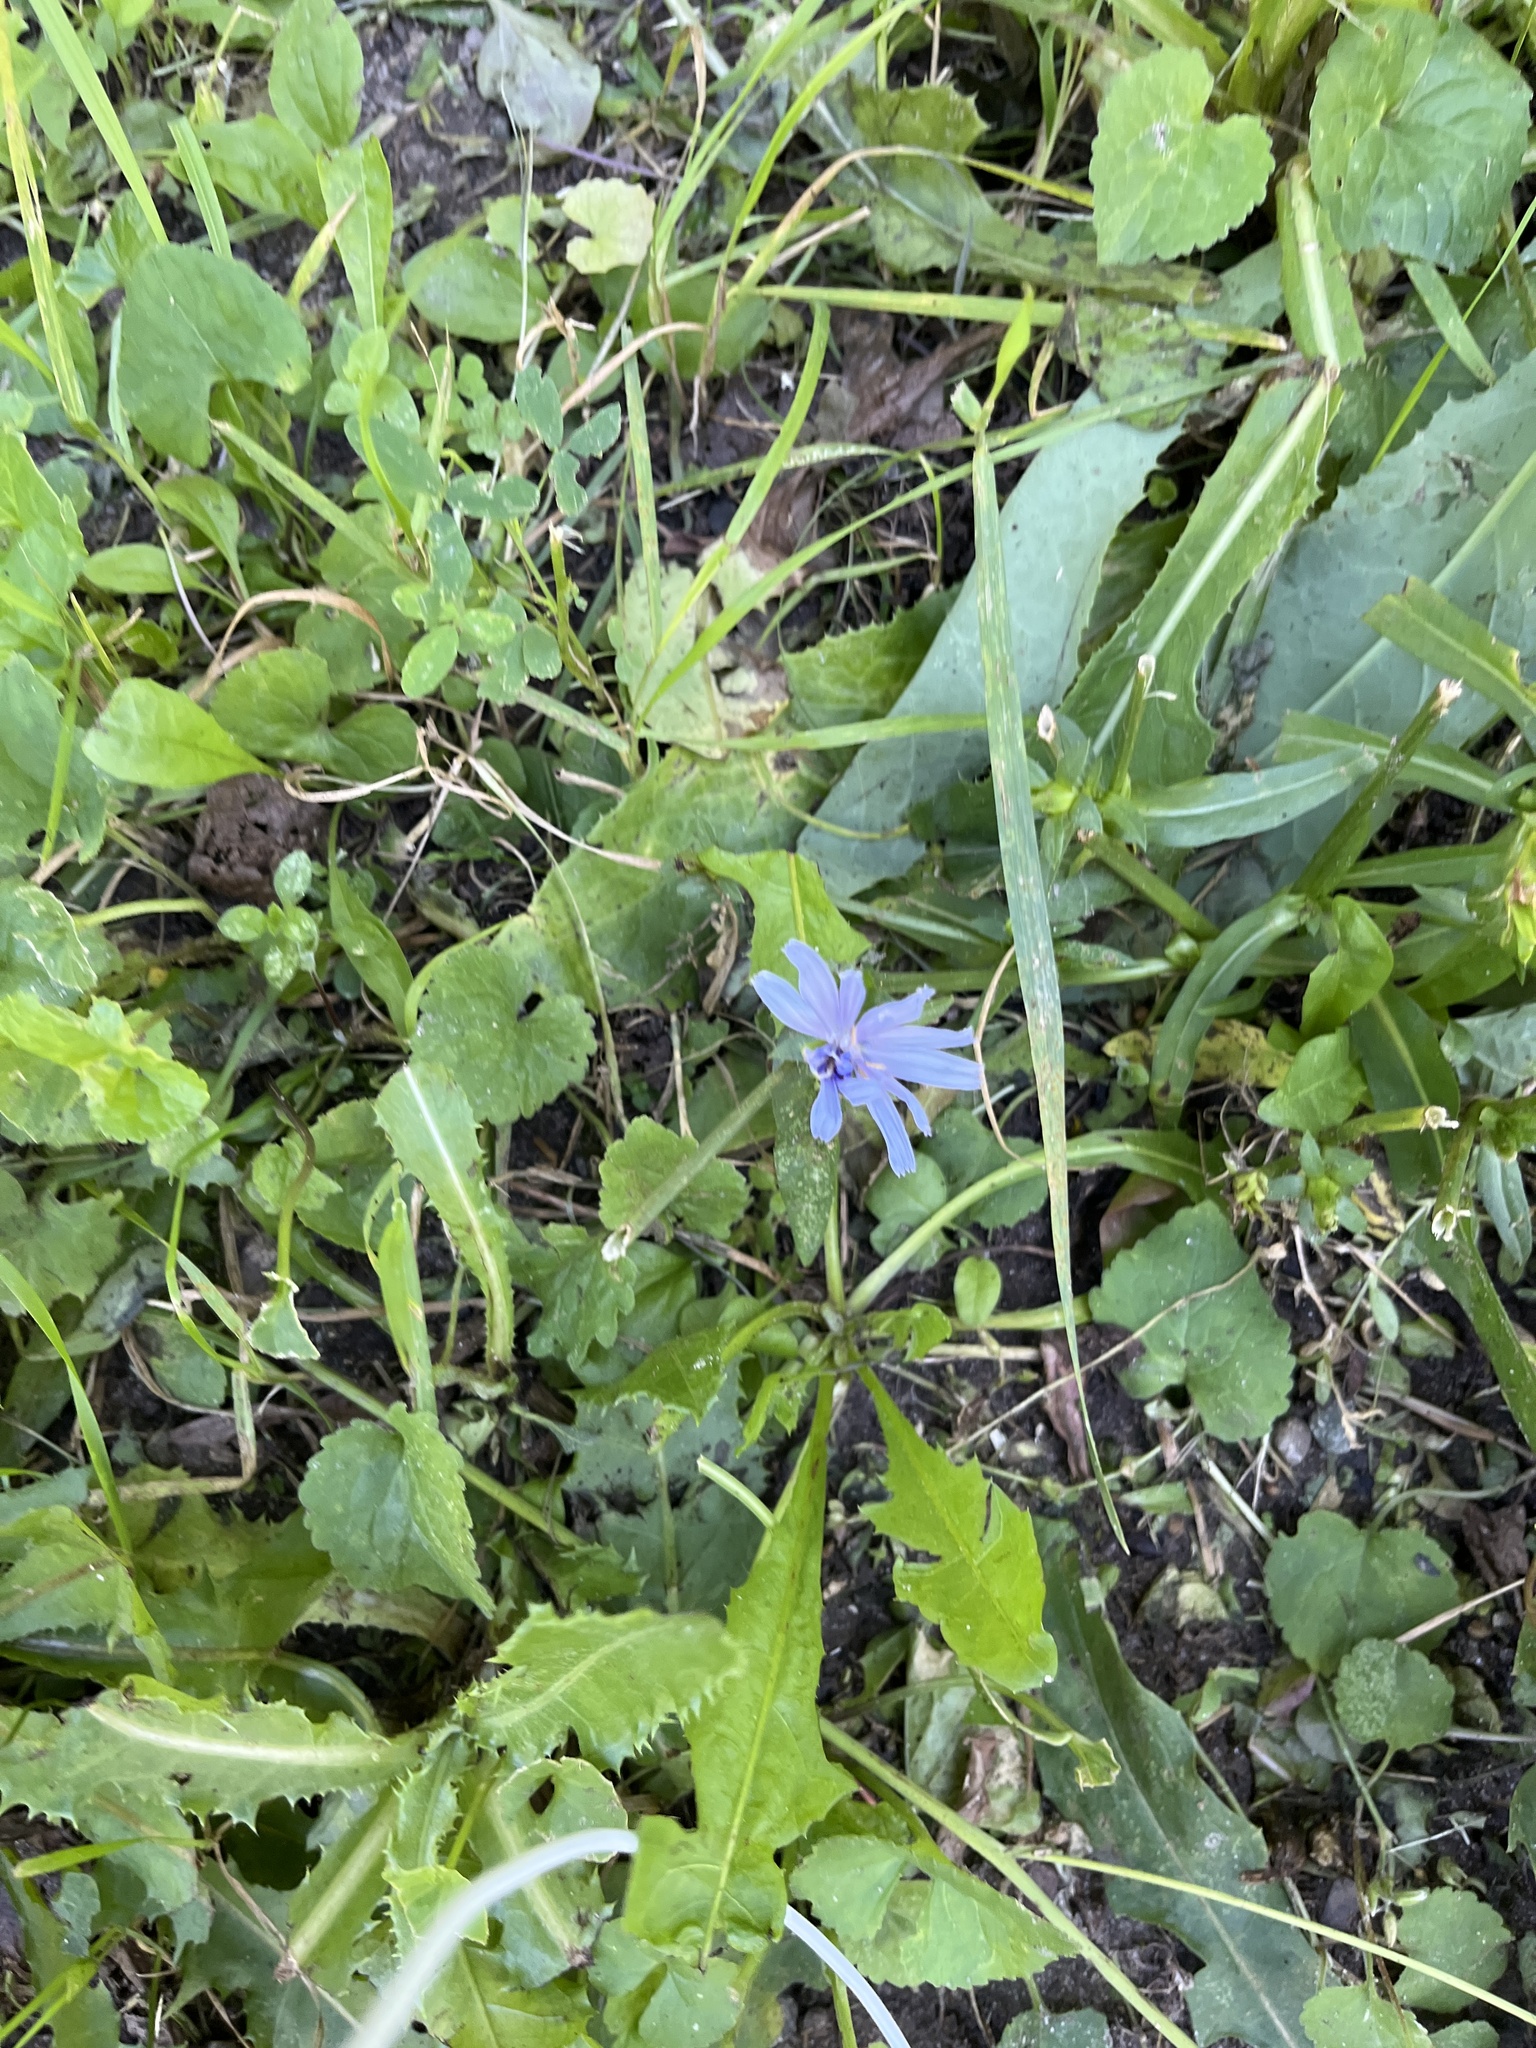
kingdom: Plantae
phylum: Tracheophyta
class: Magnoliopsida
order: Asterales
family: Asteraceae
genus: Cichorium
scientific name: Cichorium intybus
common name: Chicory
